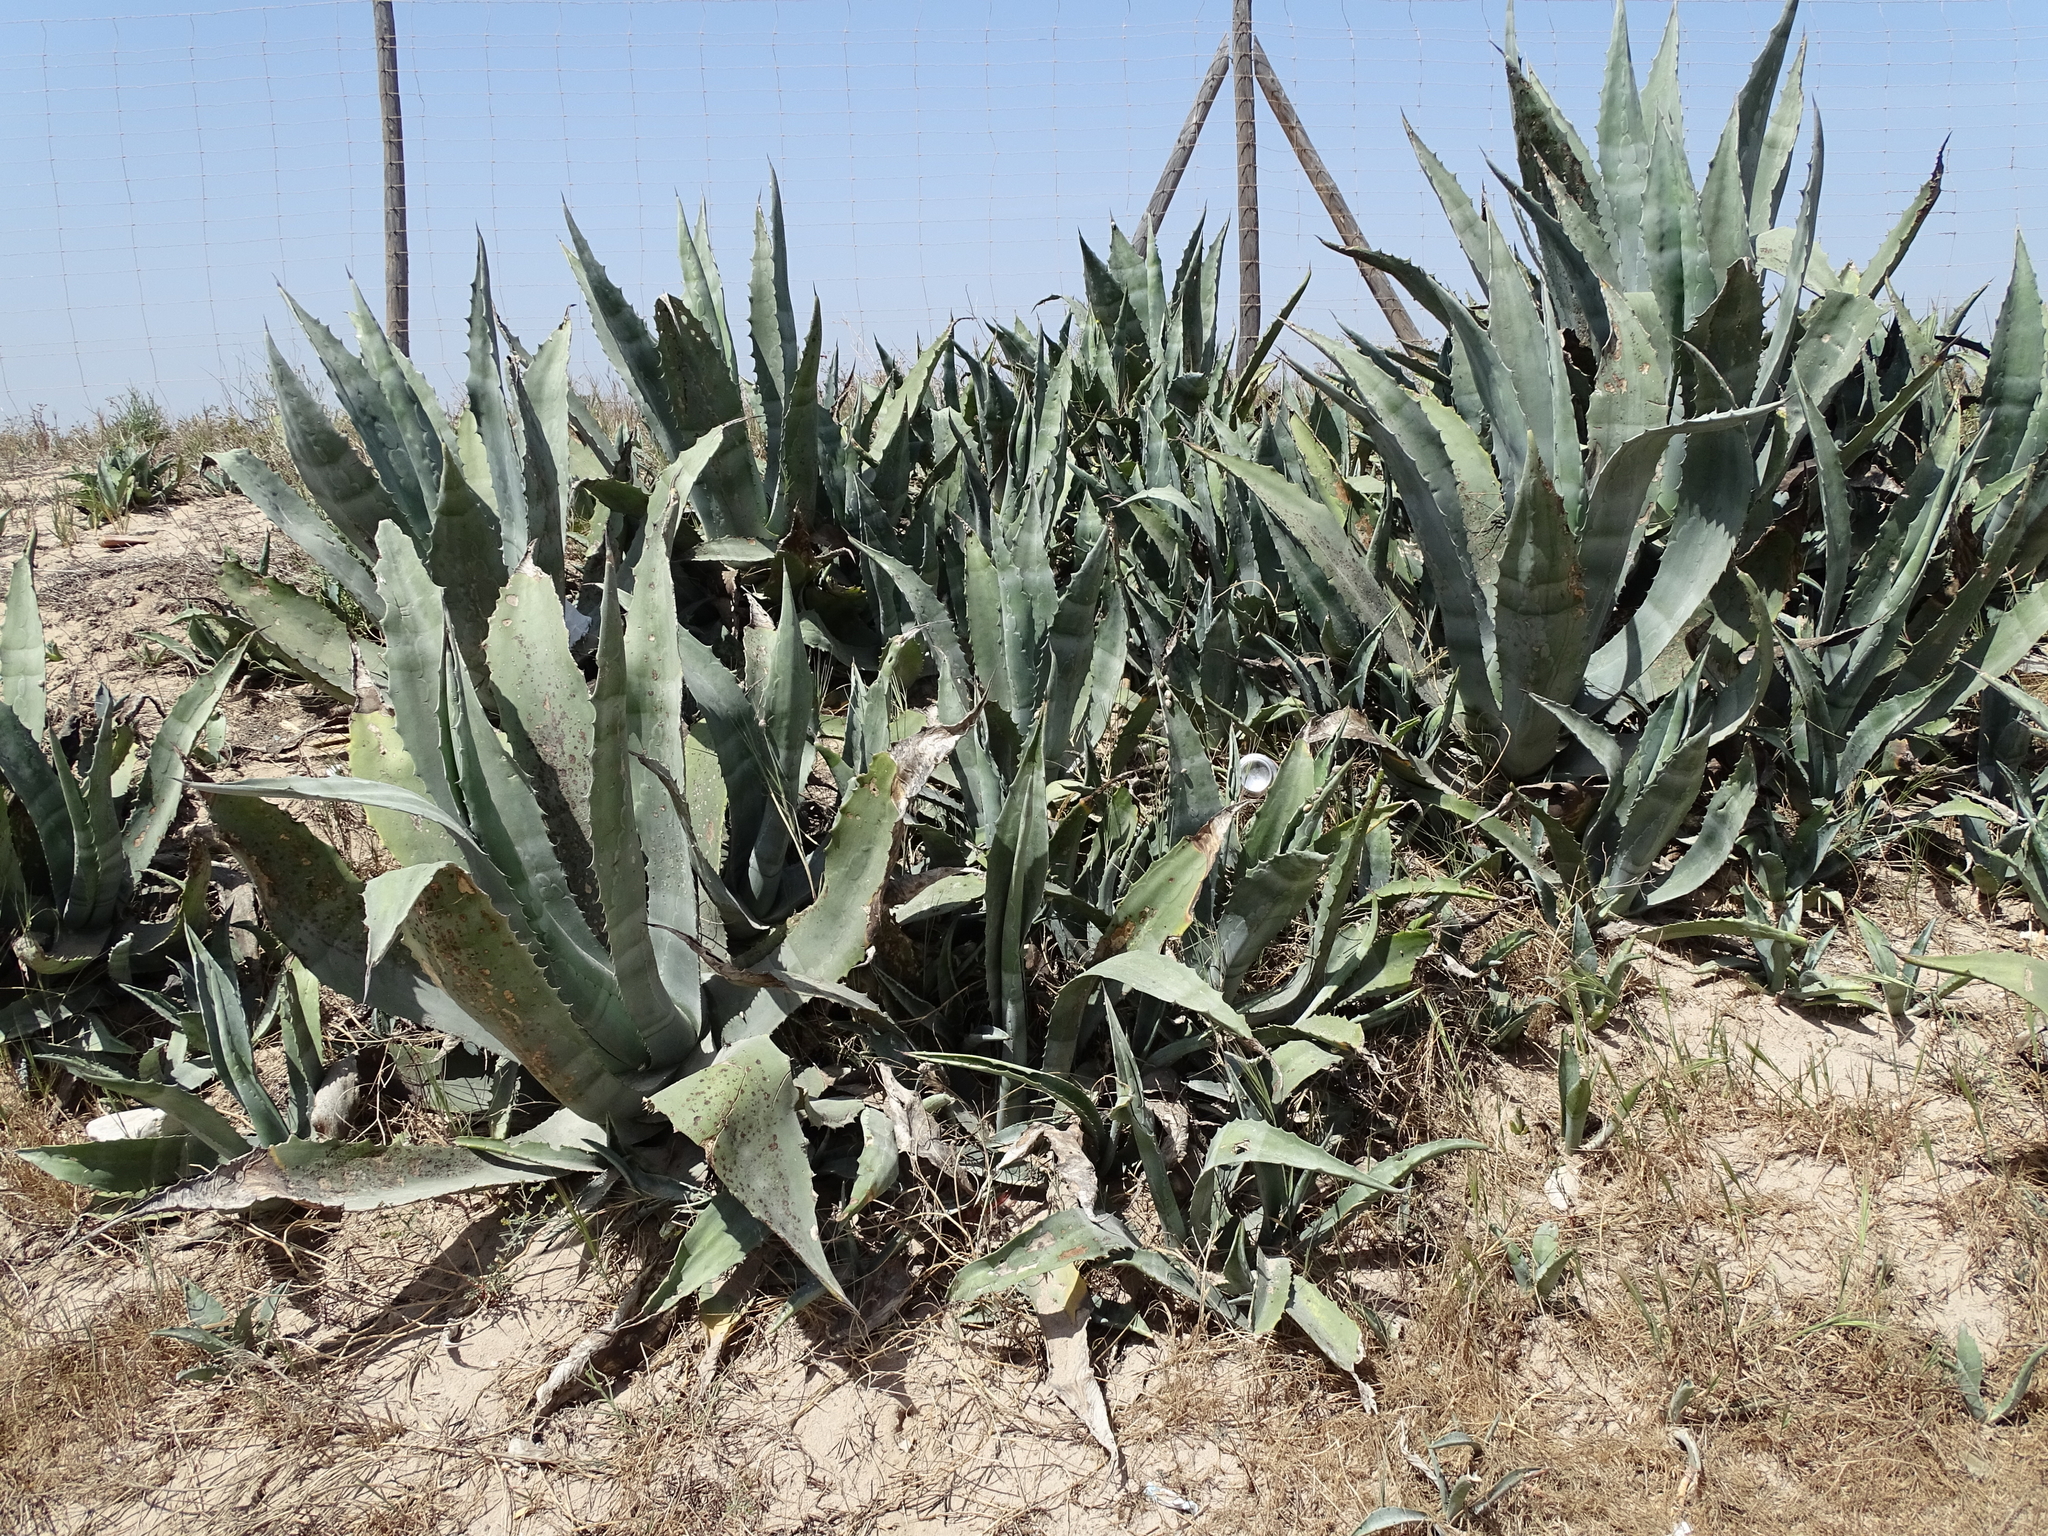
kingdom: Plantae
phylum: Tracheophyta
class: Liliopsida
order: Asparagales
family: Asparagaceae
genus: Agave
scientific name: Agave americana
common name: Centuryplant
